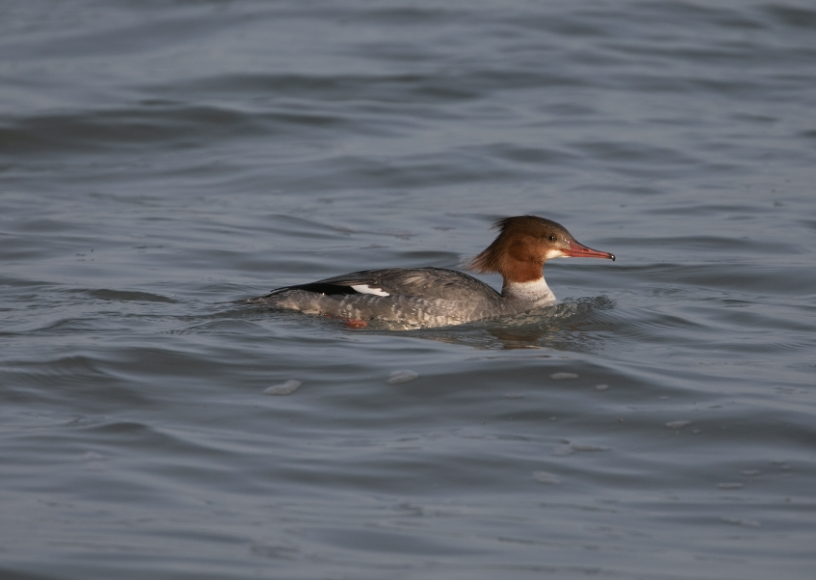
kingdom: Animalia
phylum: Chordata
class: Aves
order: Anseriformes
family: Anatidae
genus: Mergus
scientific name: Mergus merganser
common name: Common merganser
